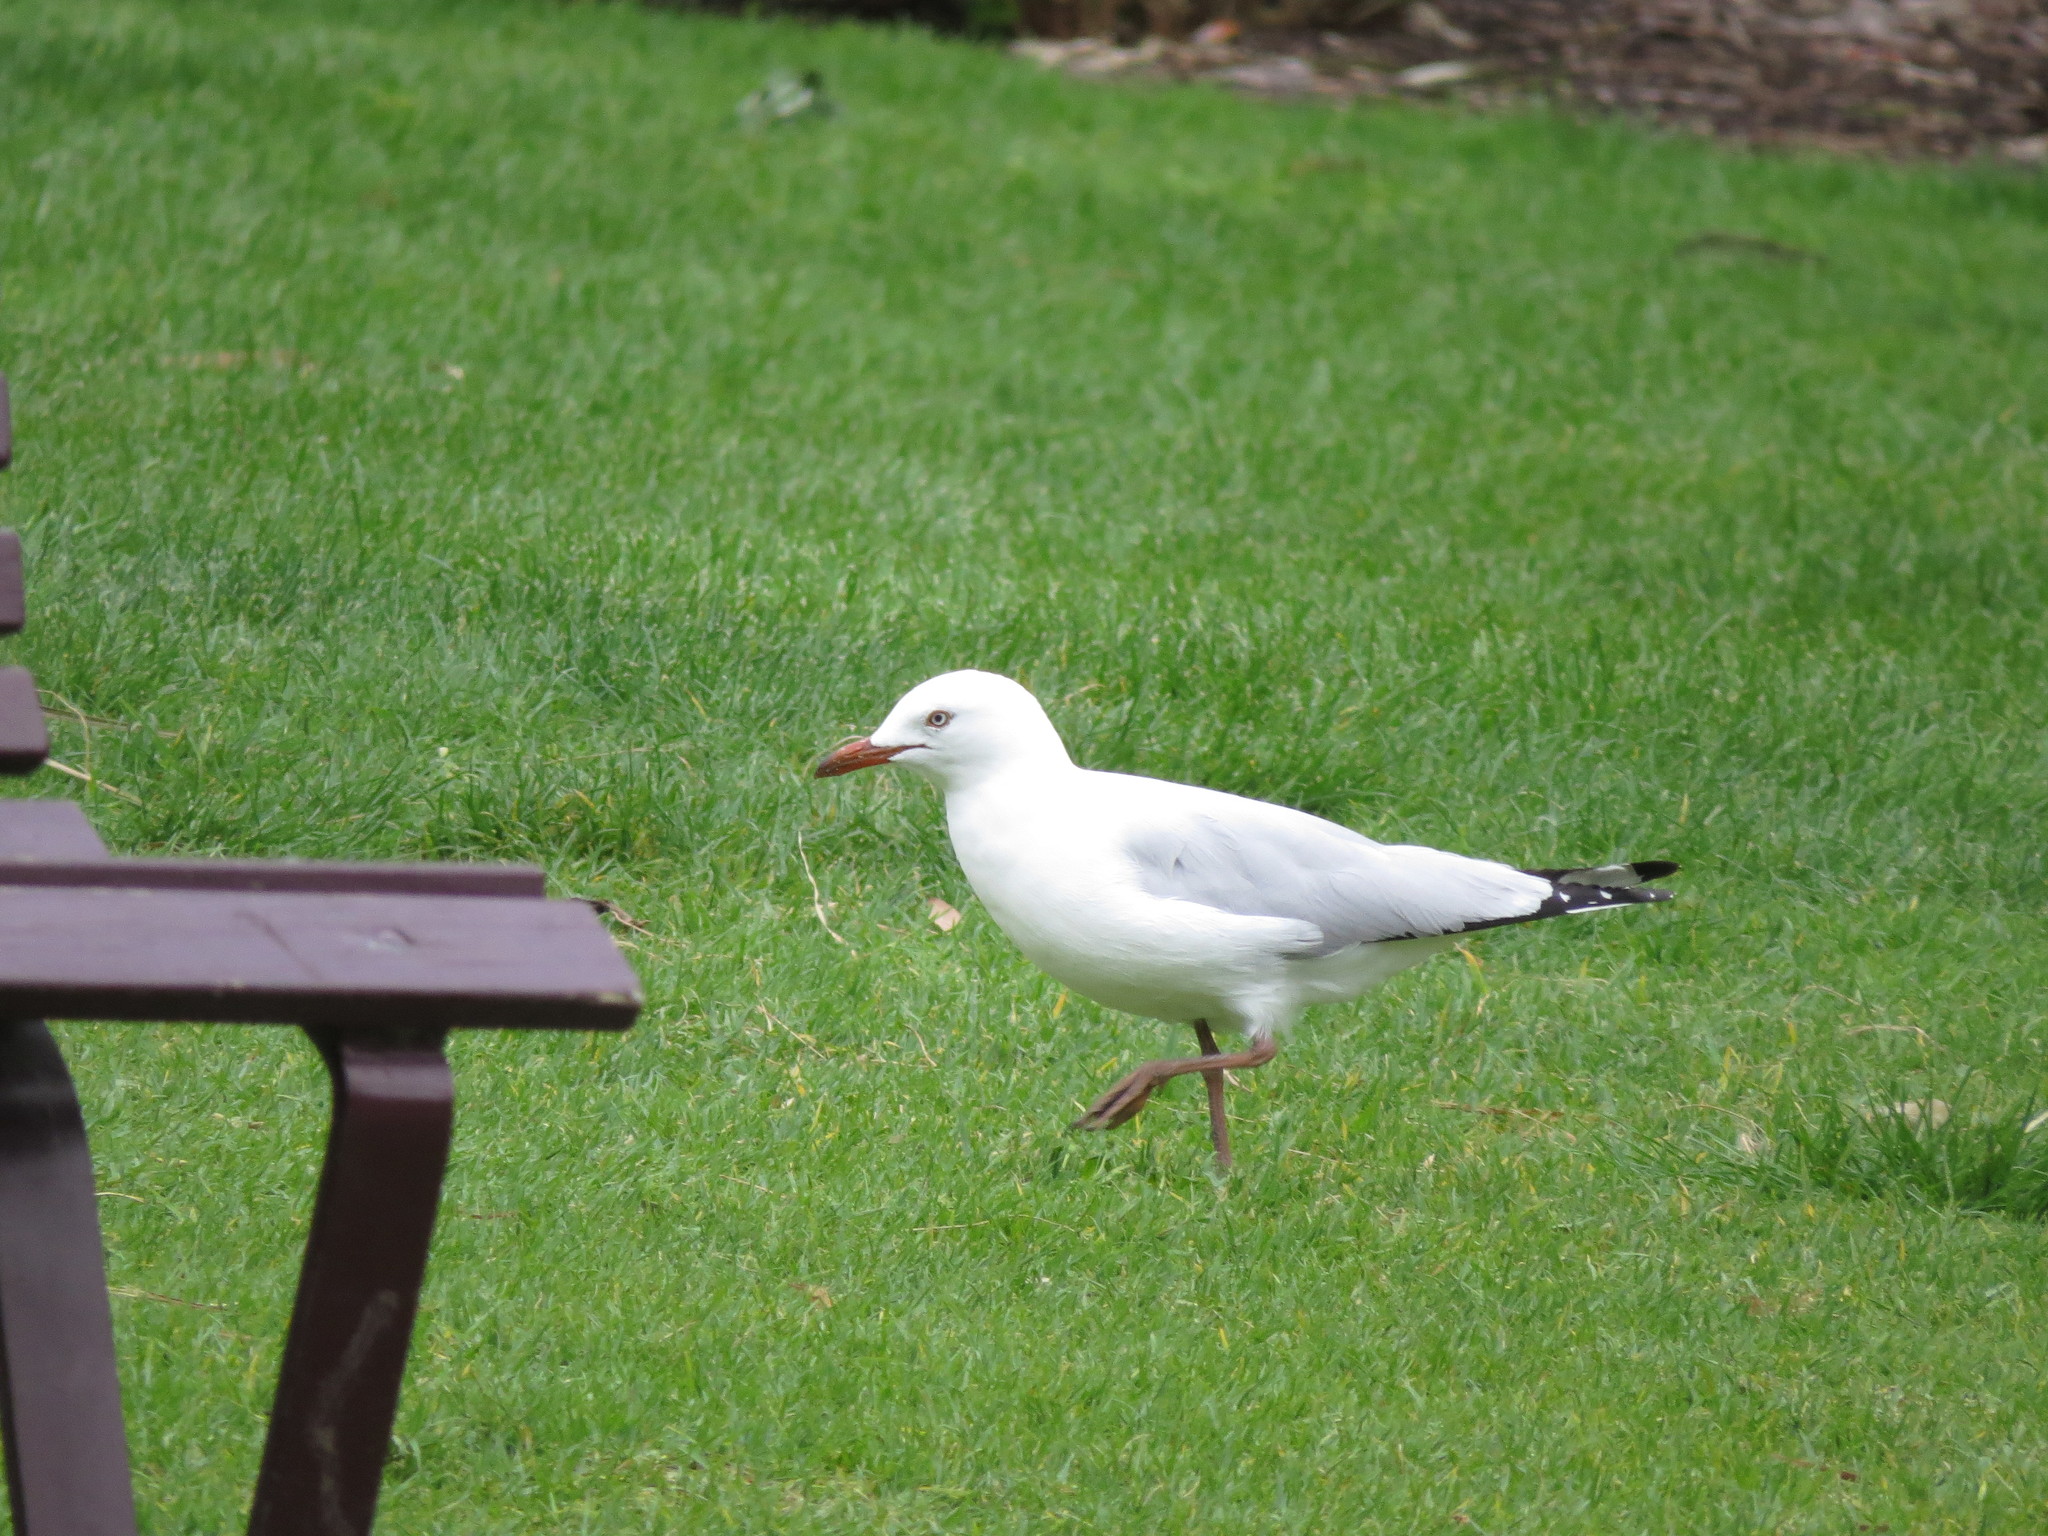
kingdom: Animalia
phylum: Chordata
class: Aves
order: Charadriiformes
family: Laridae
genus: Chroicocephalus
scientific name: Chroicocephalus novaehollandiae
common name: Silver gull
